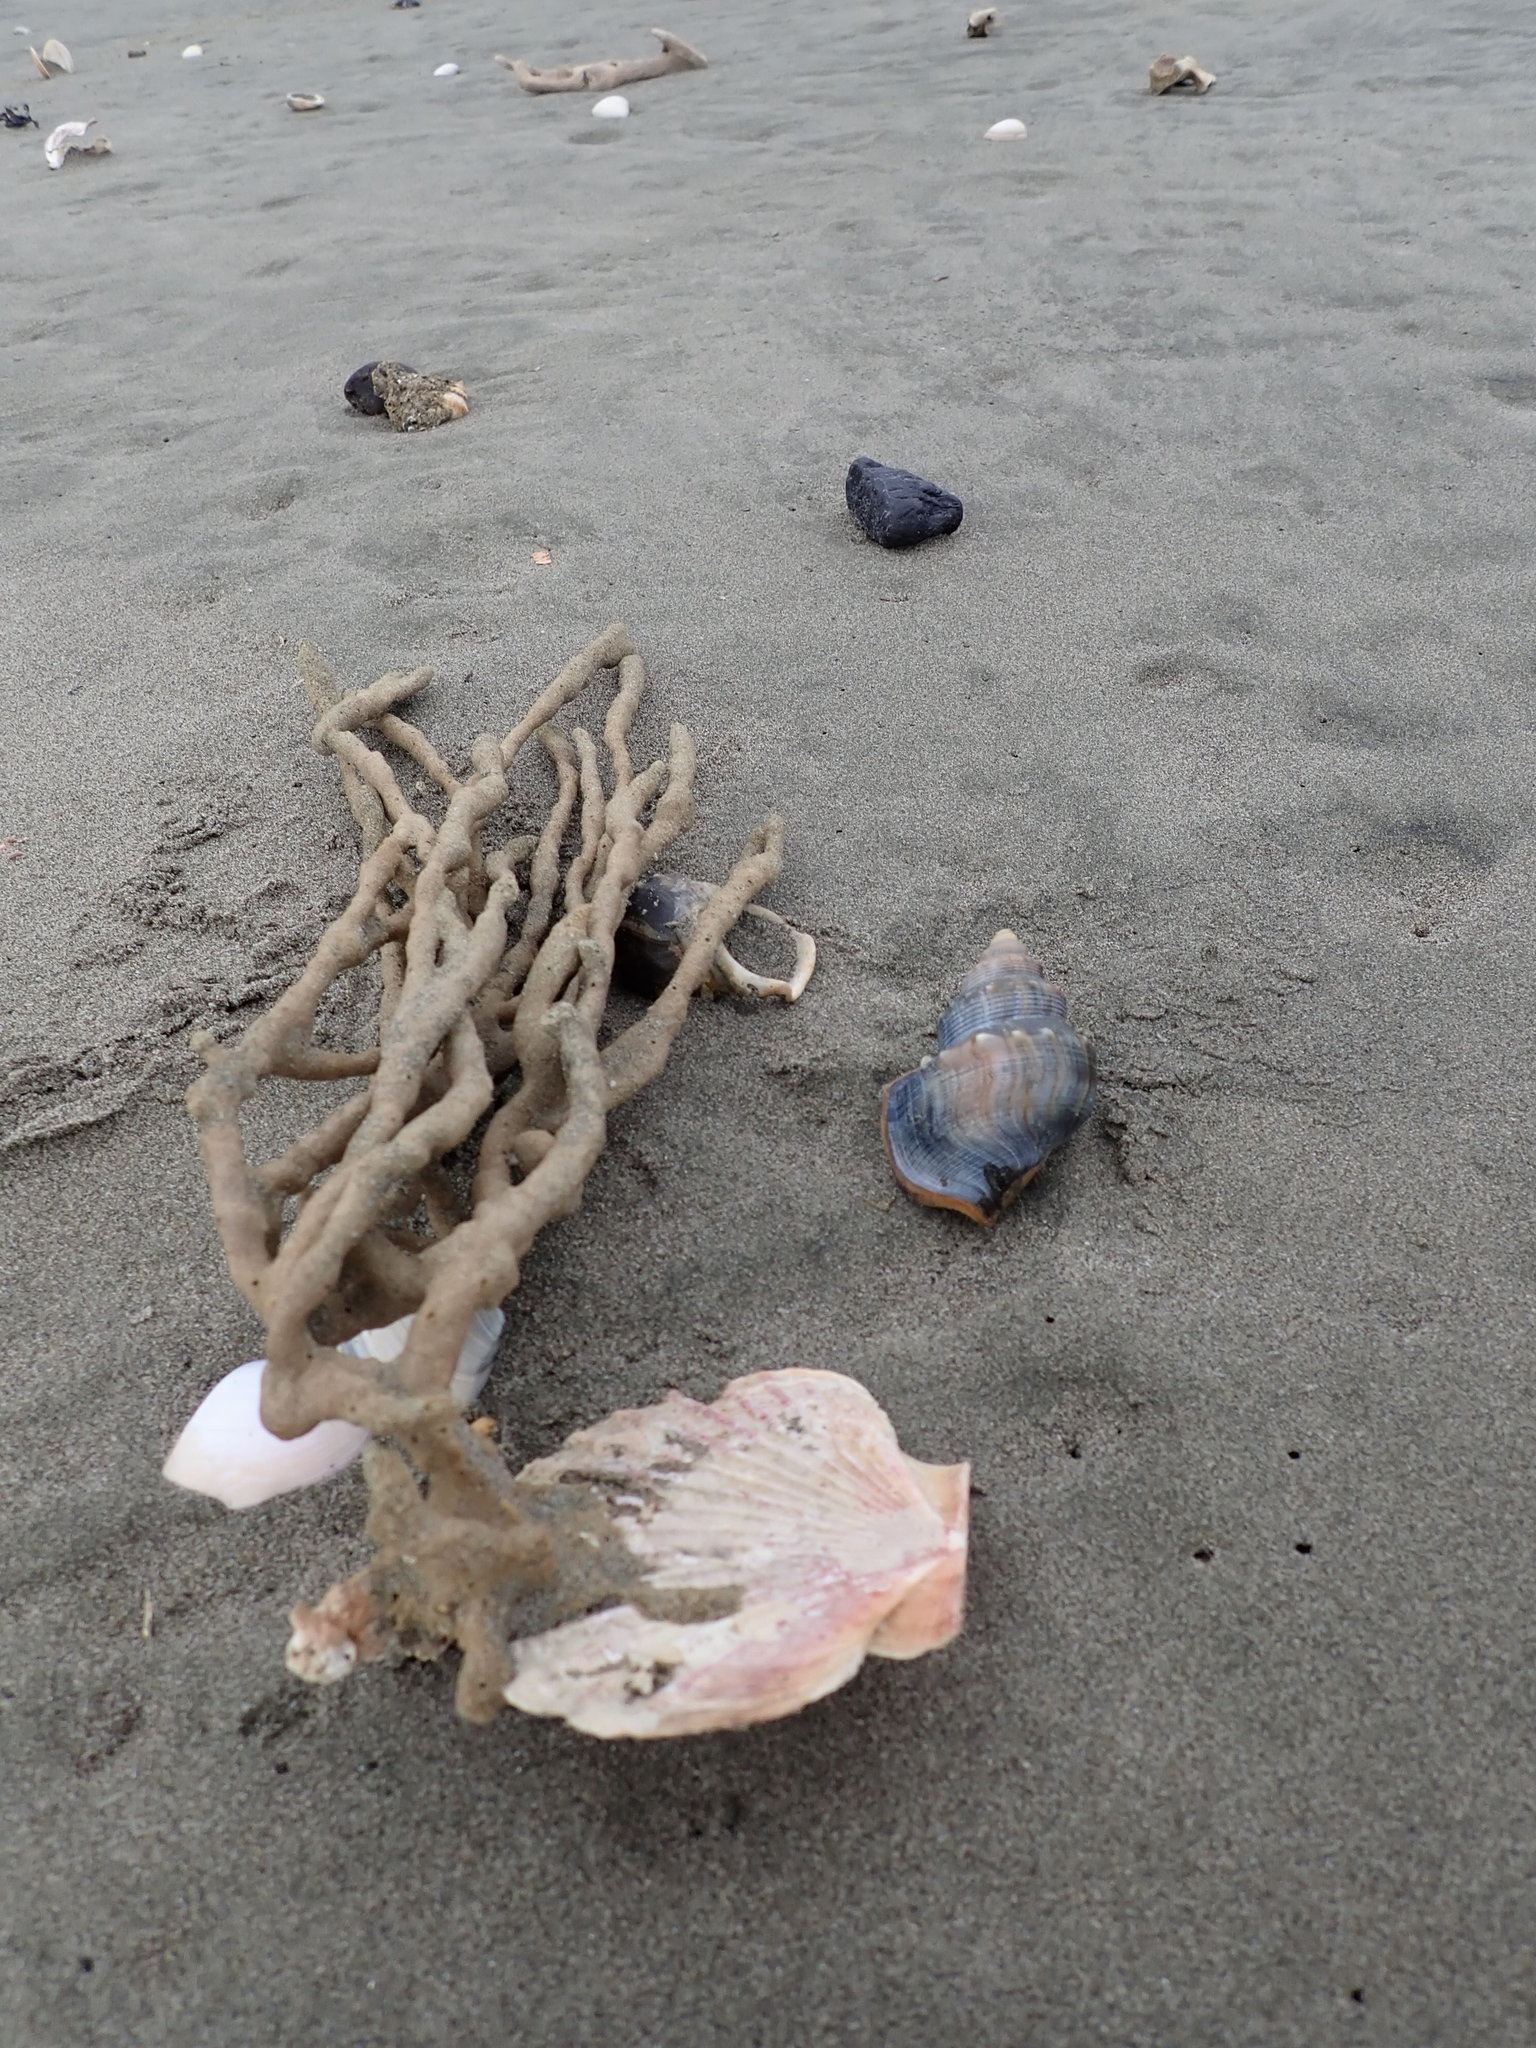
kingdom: Animalia
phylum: Mollusca
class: Bivalvia
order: Pectinida
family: Pectinidae
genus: Pecten
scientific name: Pecten novaezelandiae
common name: New zealand scallop
